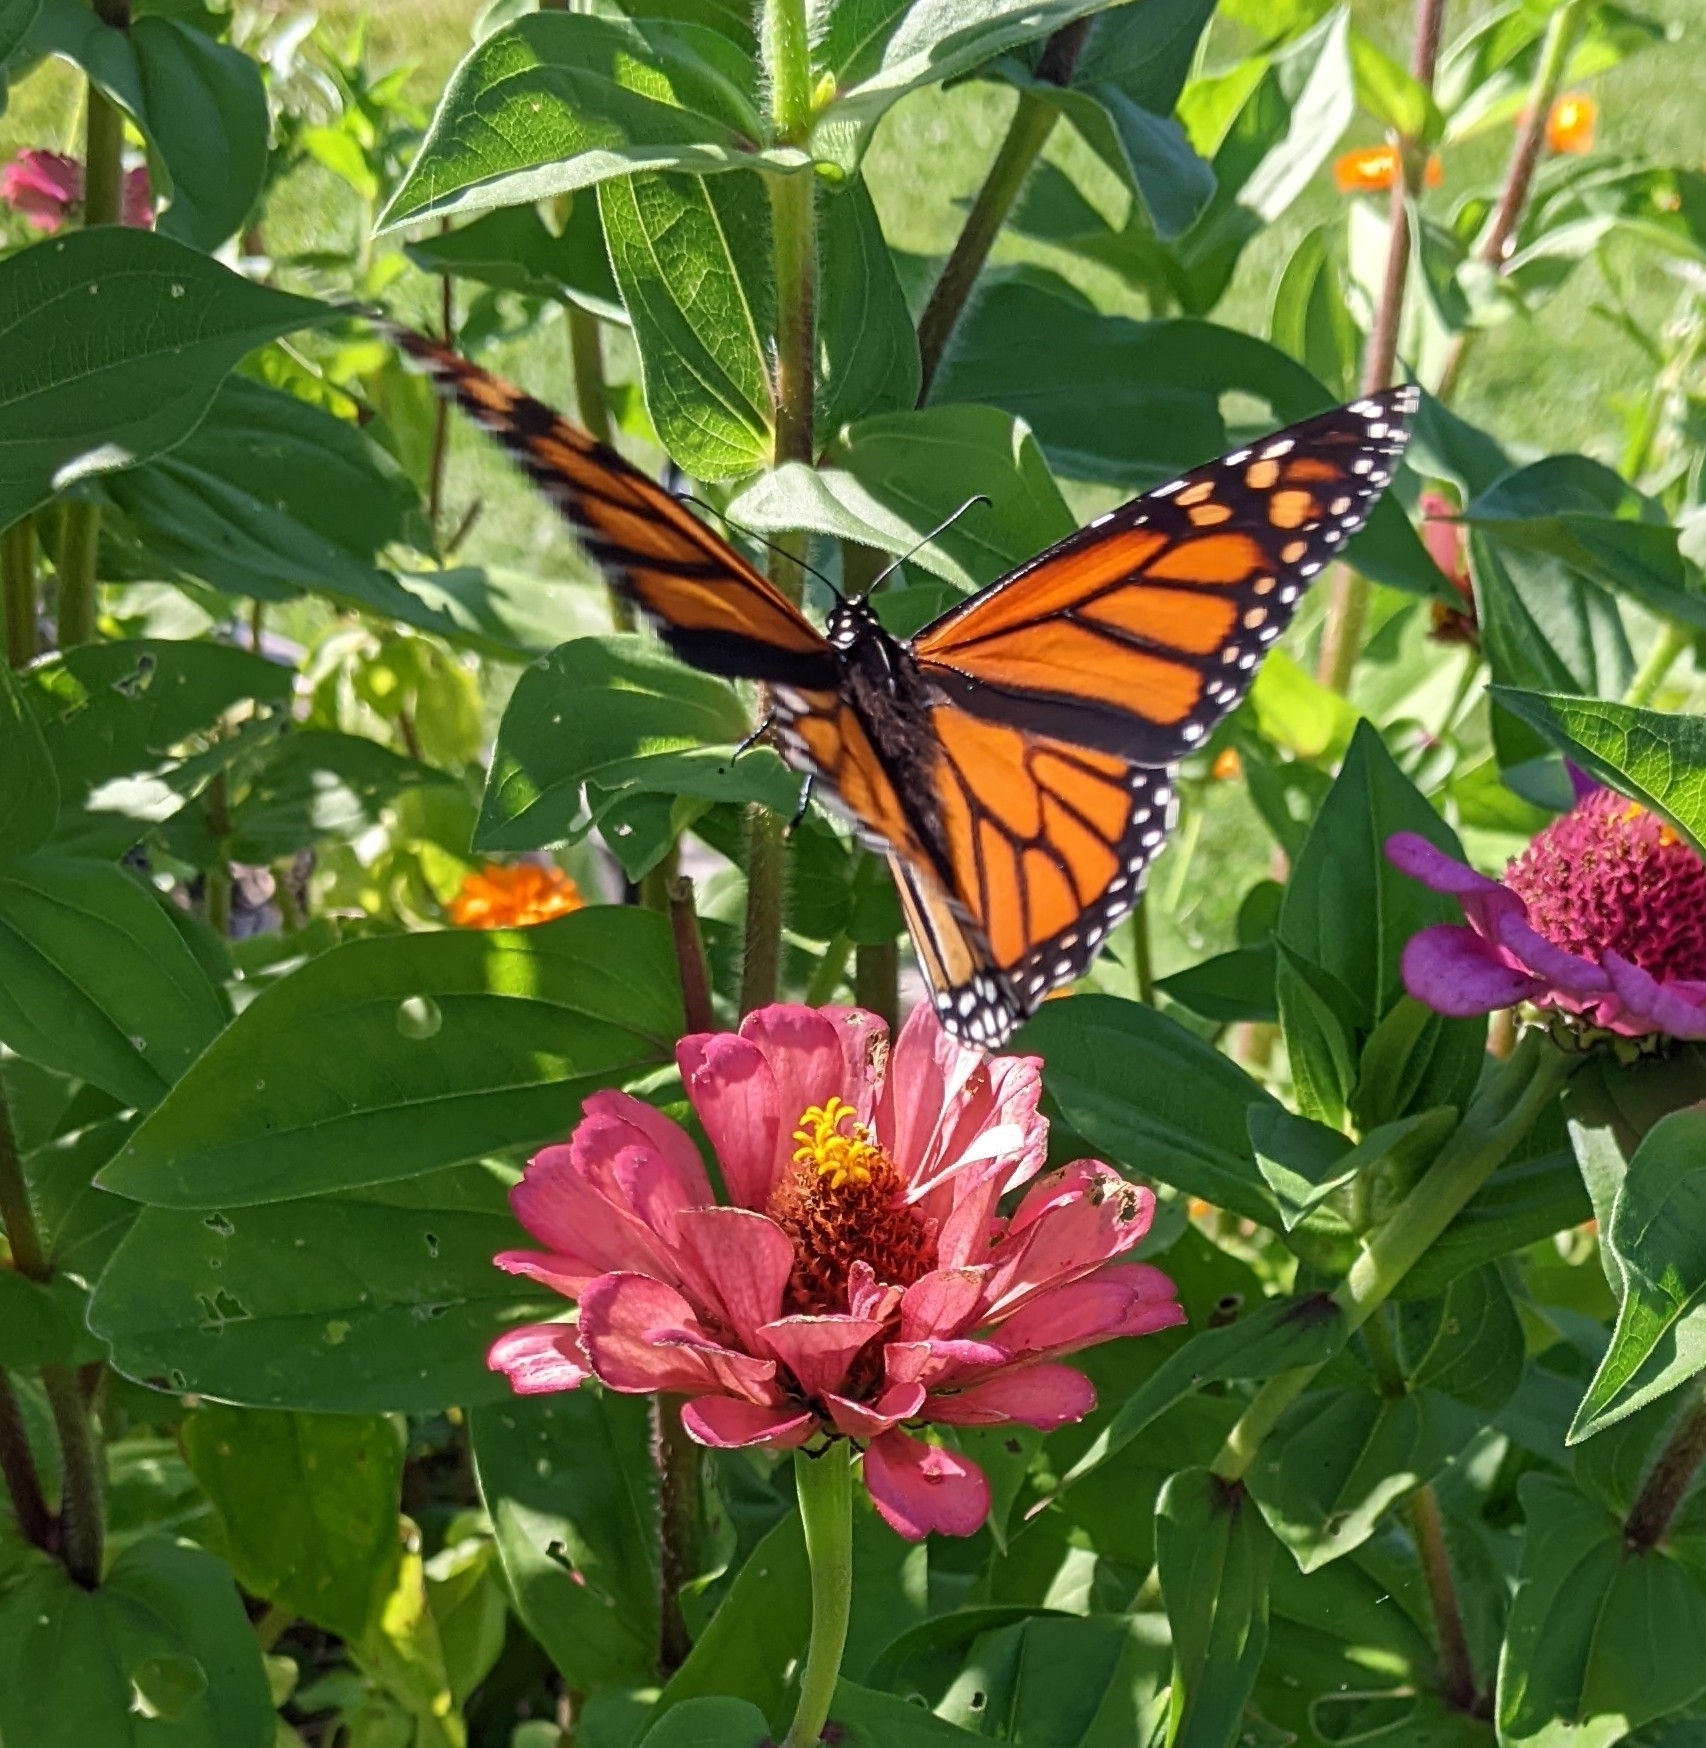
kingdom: Animalia
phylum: Arthropoda
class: Insecta
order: Lepidoptera
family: Nymphalidae
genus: Danaus
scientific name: Danaus plexippus
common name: Monarch
